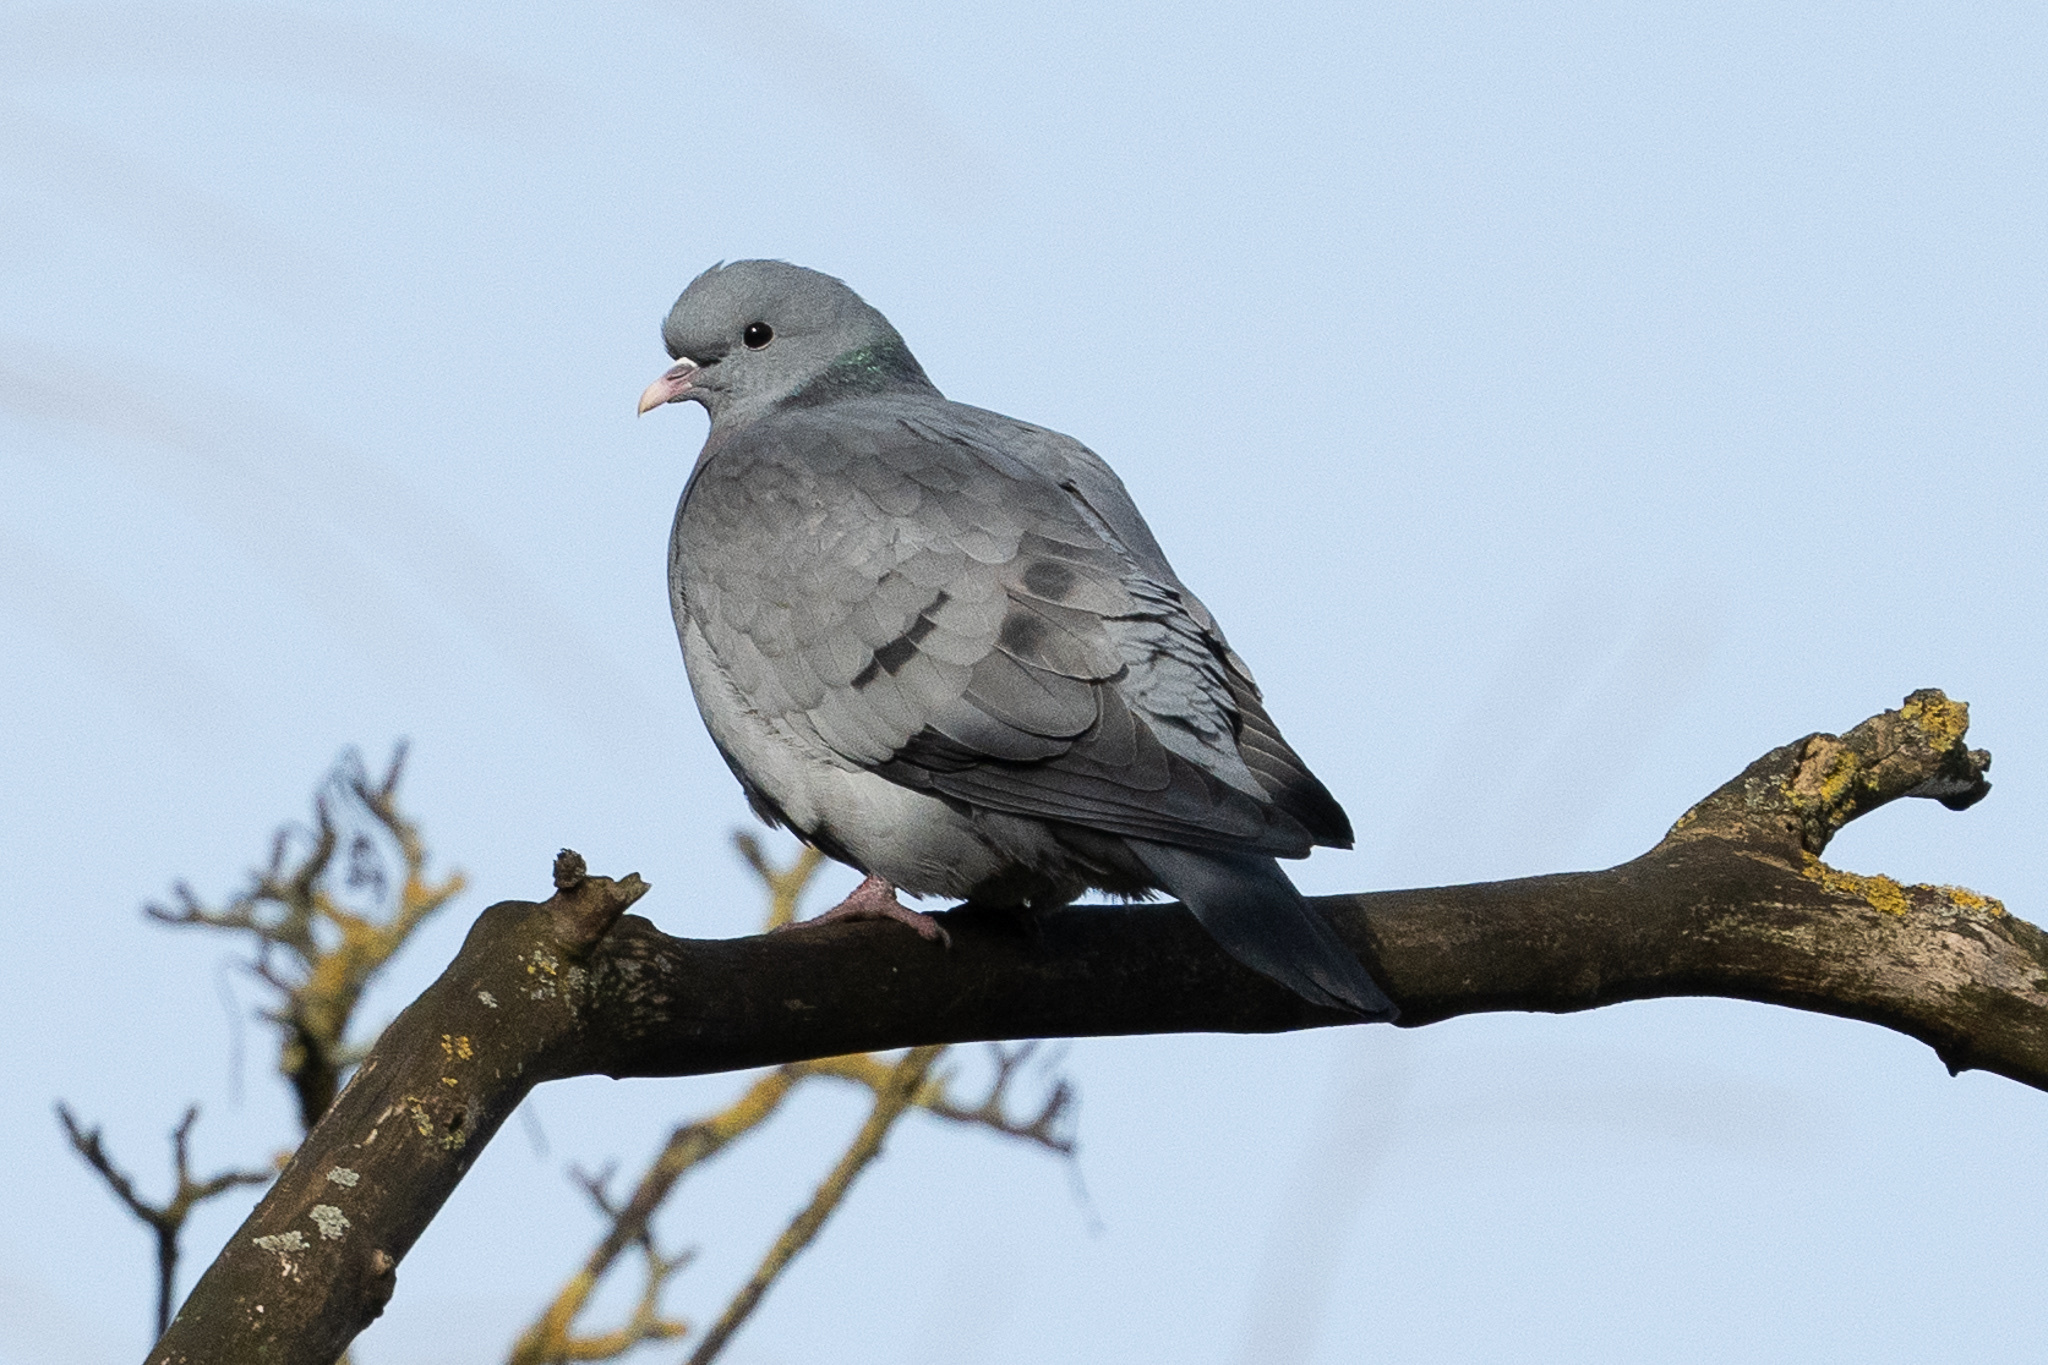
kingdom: Animalia
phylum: Chordata
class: Aves
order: Columbiformes
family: Columbidae
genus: Columba
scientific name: Columba oenas
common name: Stock dove
